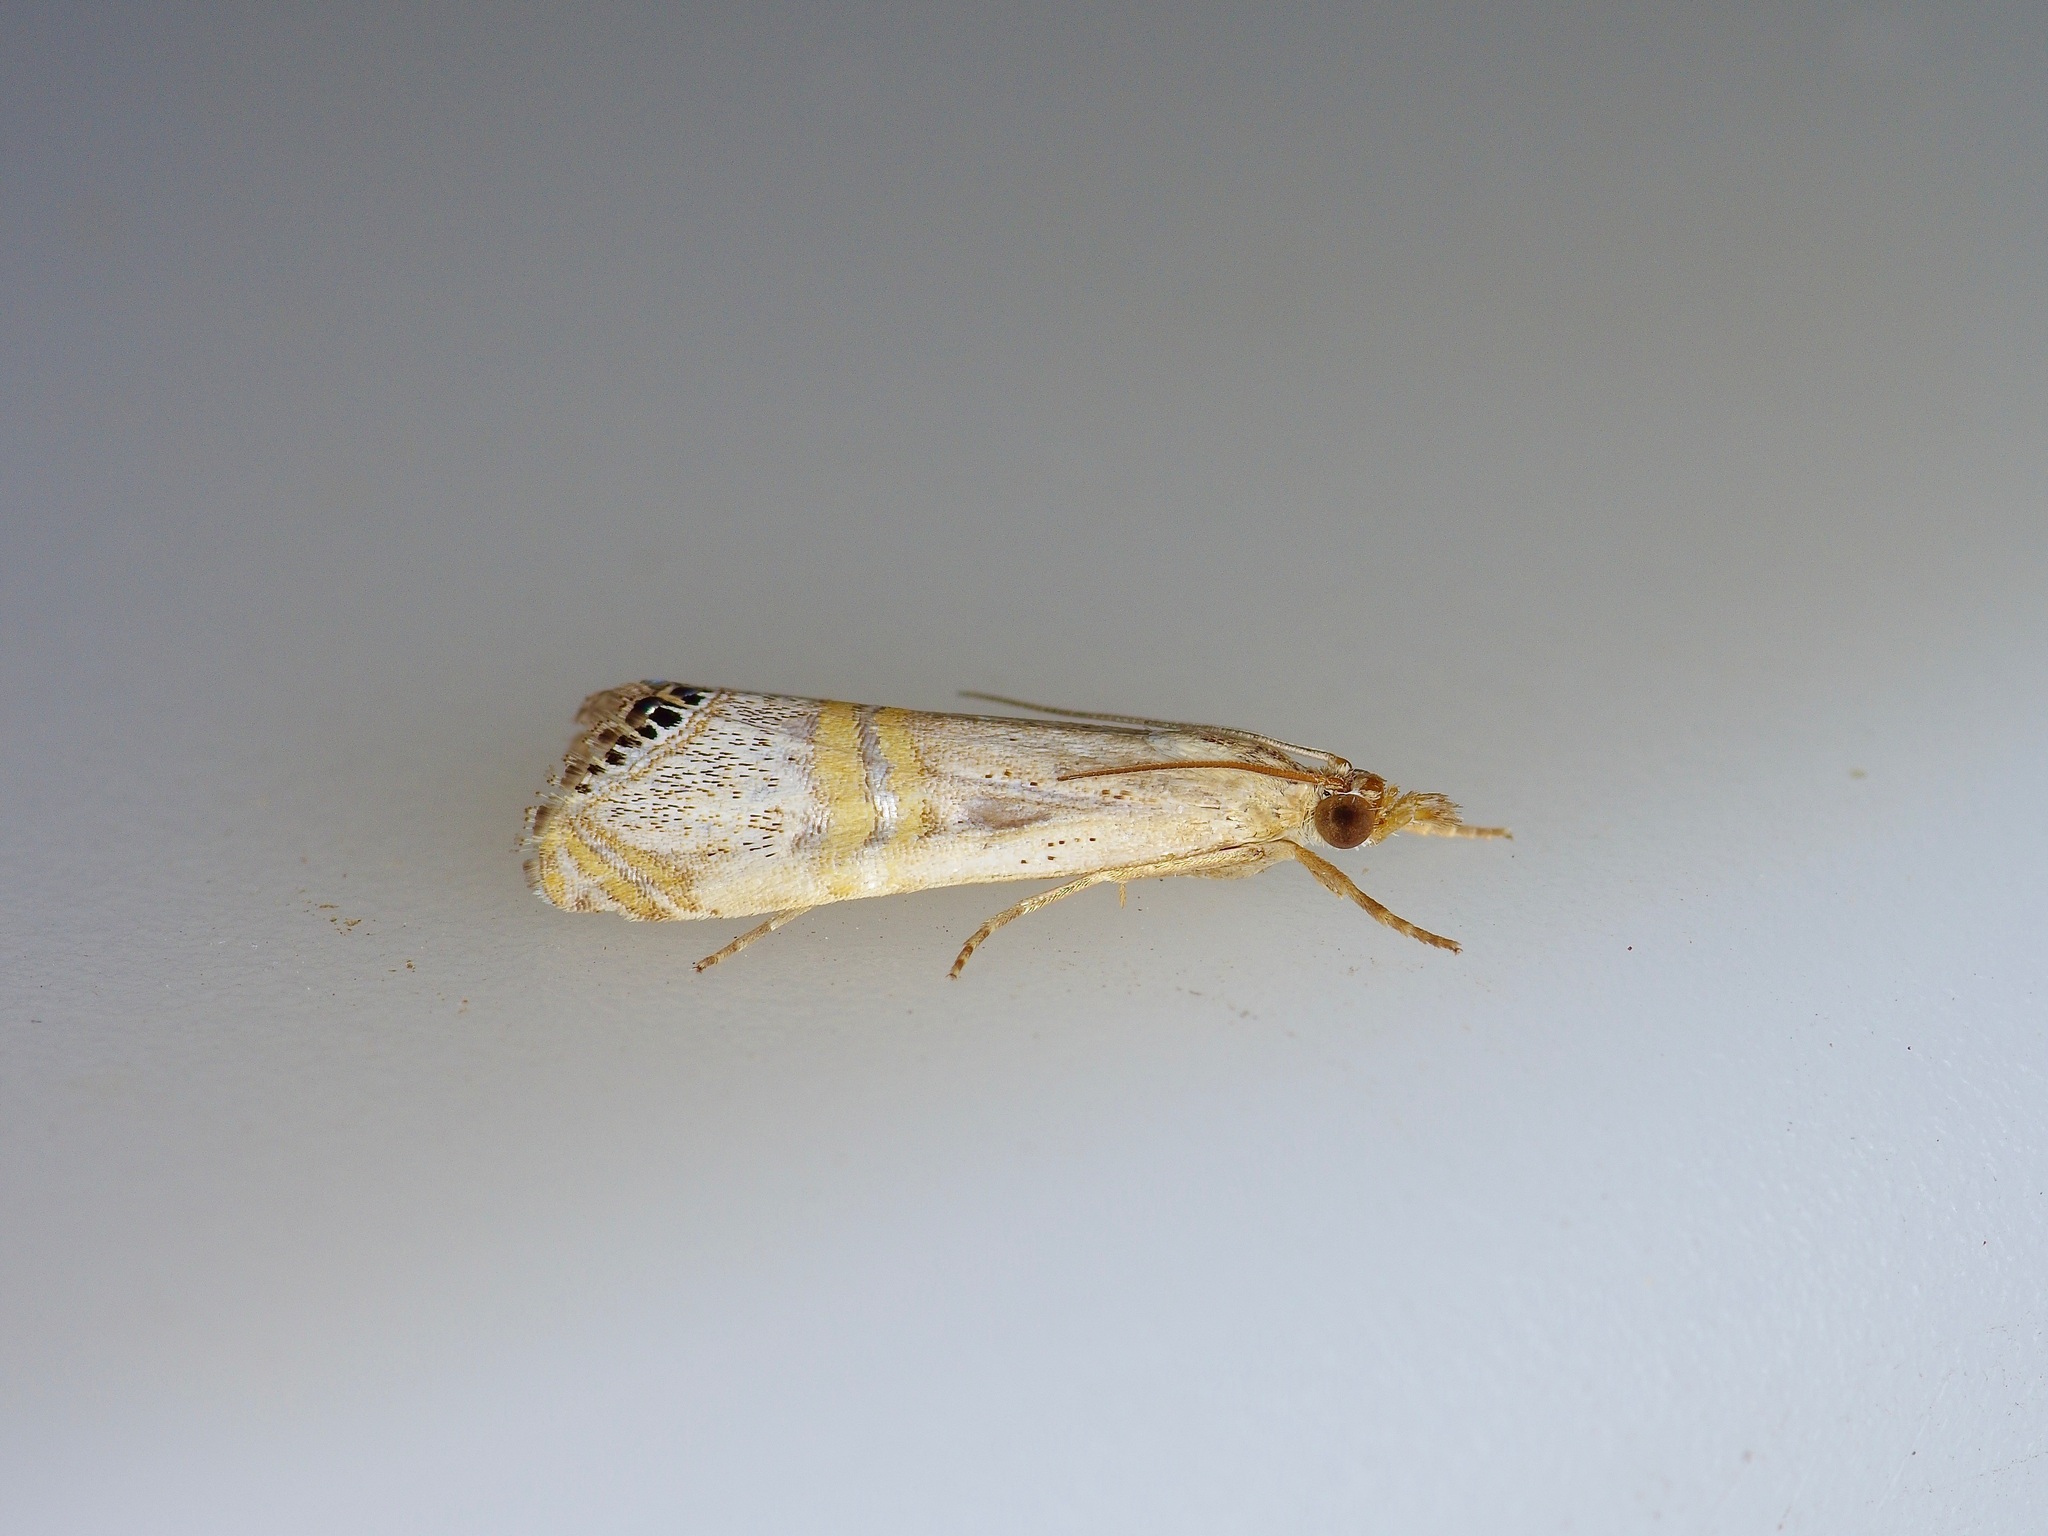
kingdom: Animalia
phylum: Arthropoda
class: Insecta
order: Lepidoptera
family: Crambidae
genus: Euchromius
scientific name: Euchromius ocellea
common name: Necklace veneer moth
